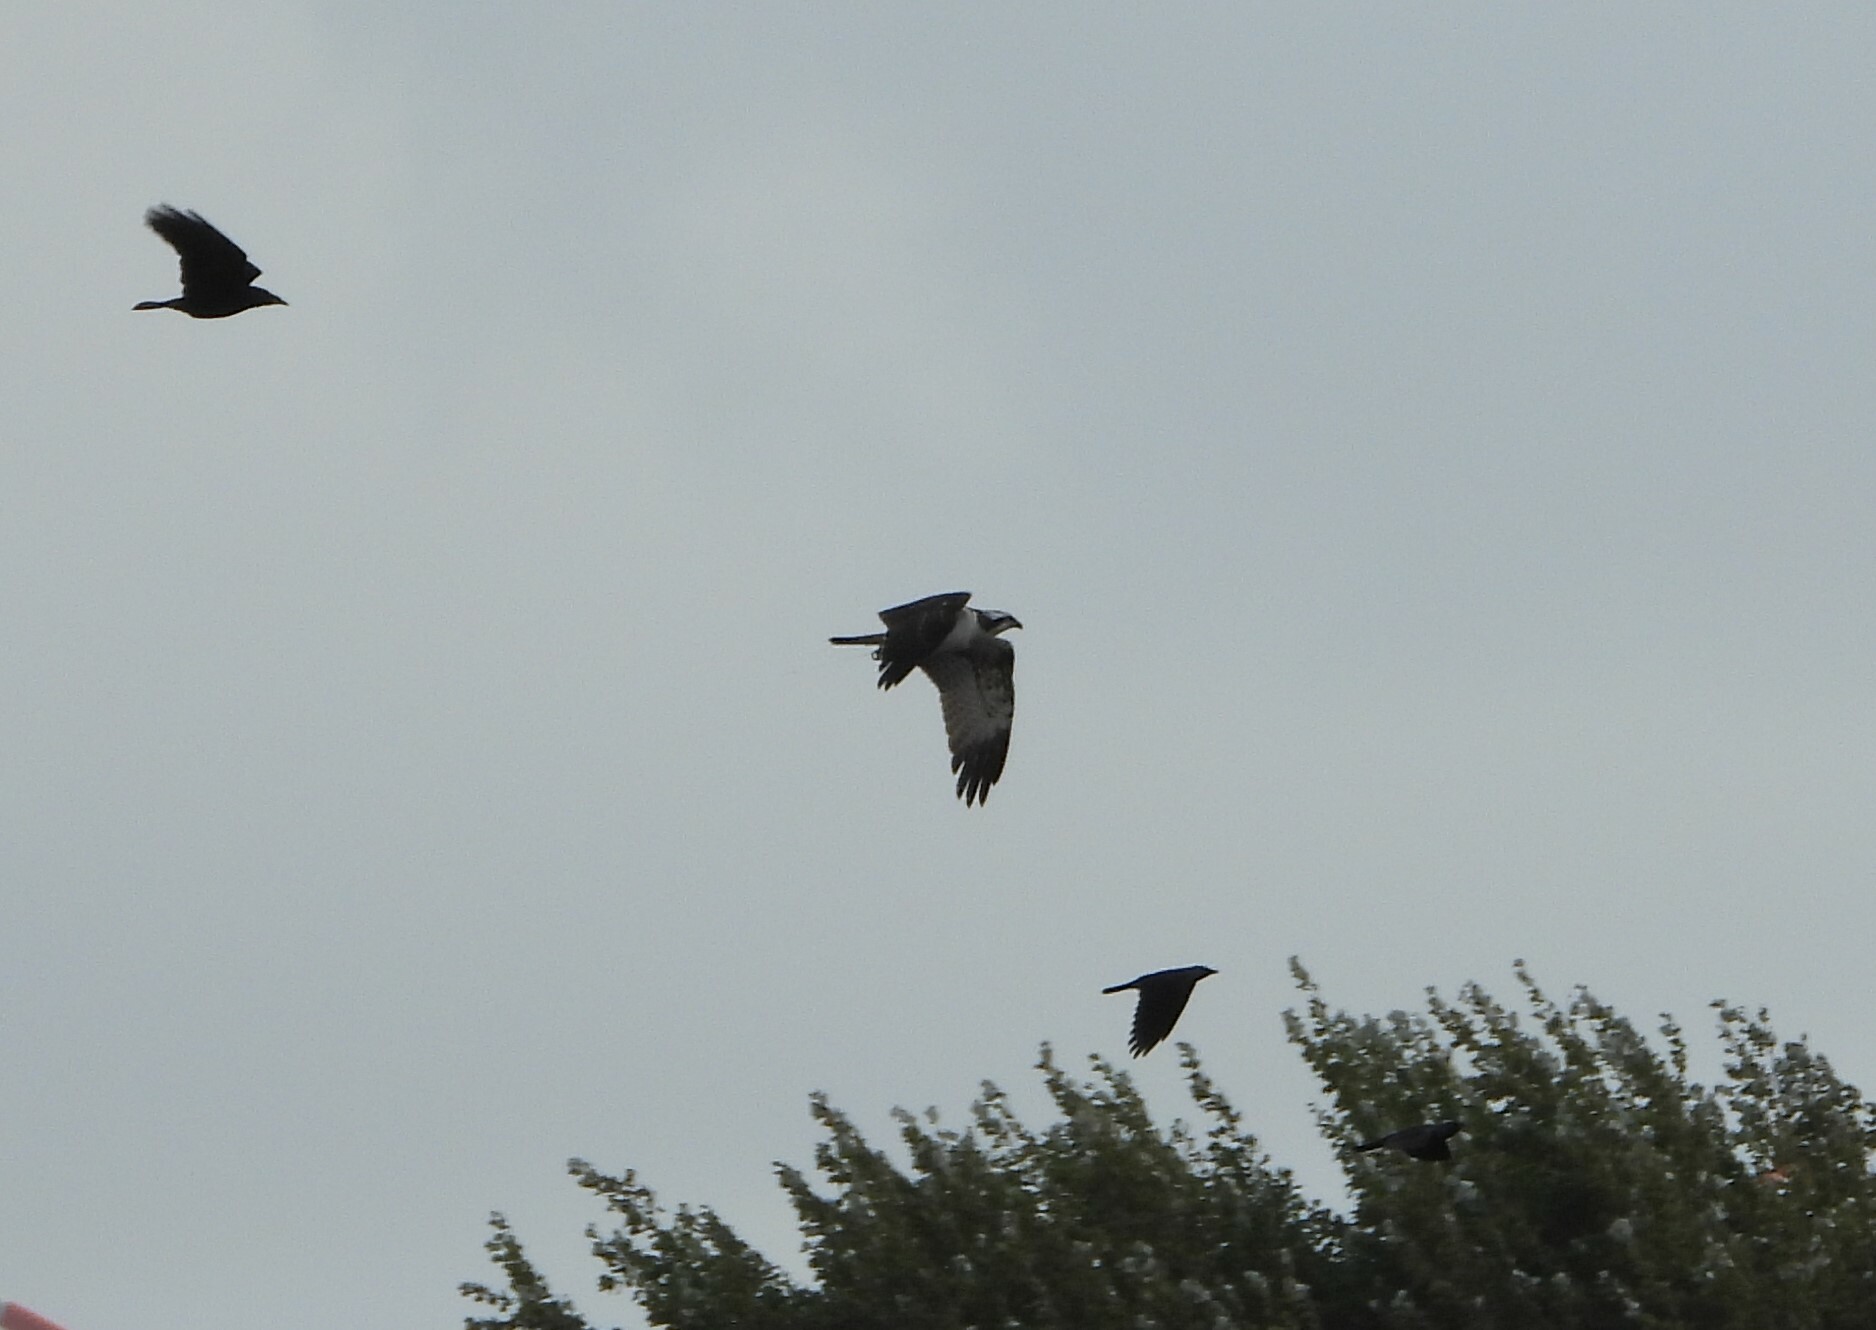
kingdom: Animalia
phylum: Chordata
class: Aves
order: Accipitriformes
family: Pandionidae
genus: Pandion
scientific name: Pandion haliaetus
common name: Osprey
